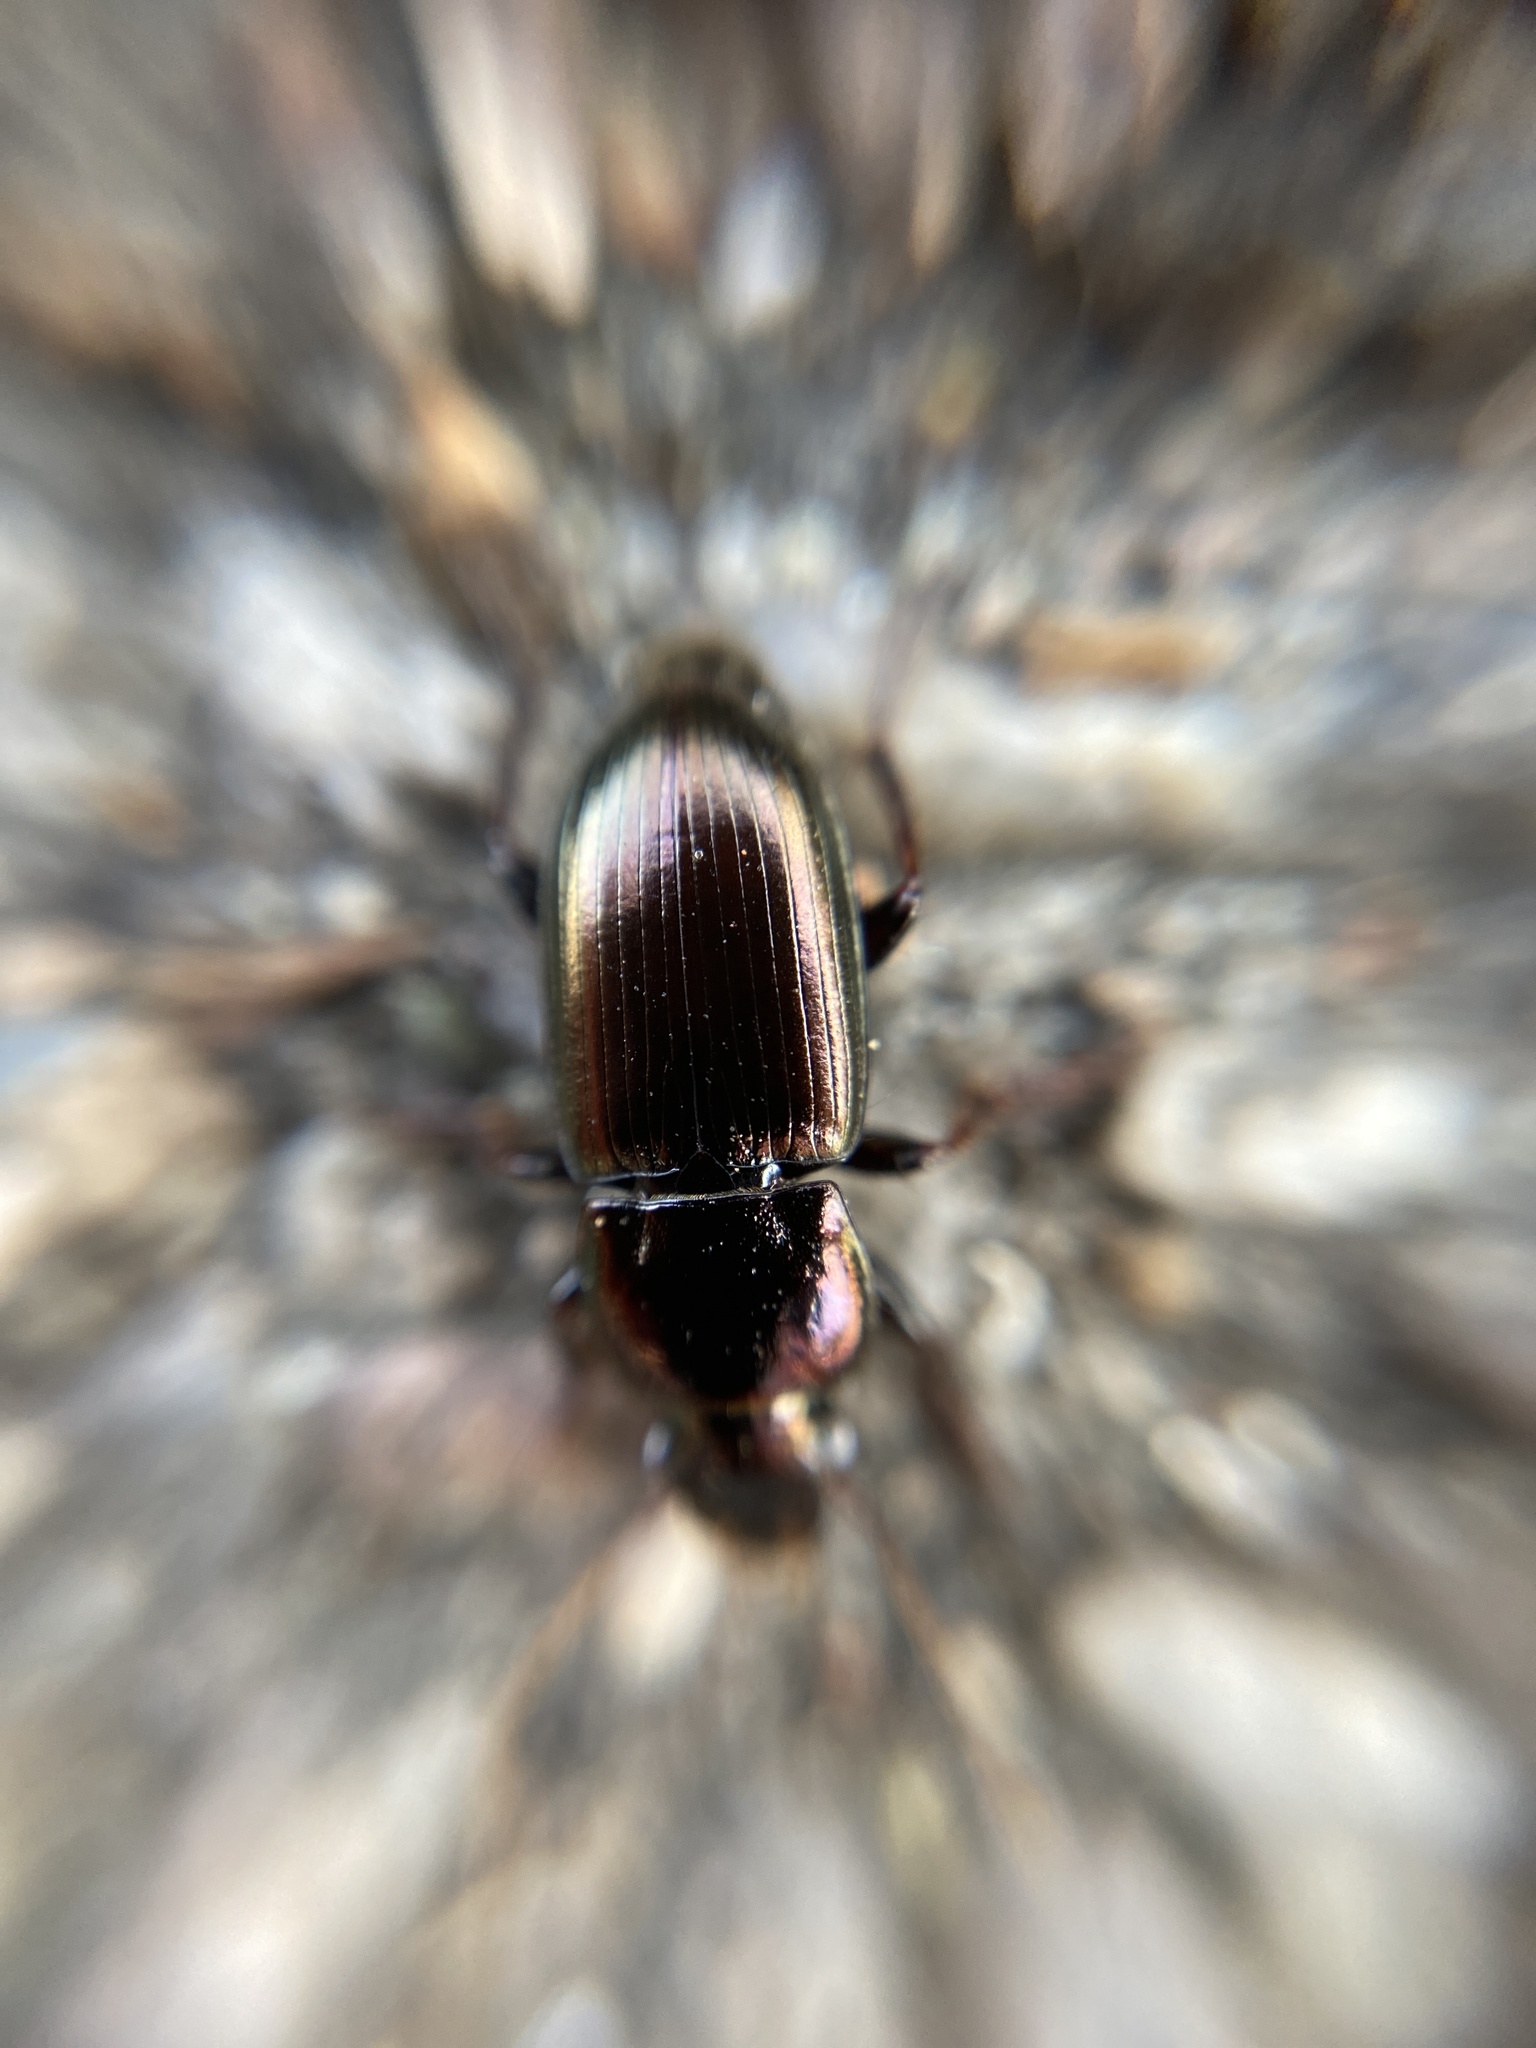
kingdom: Animalia
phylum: Arthropoda
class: Insecta
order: Coleoptera
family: Carabidae
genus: Harpalus
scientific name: Harpalus distinguendus
